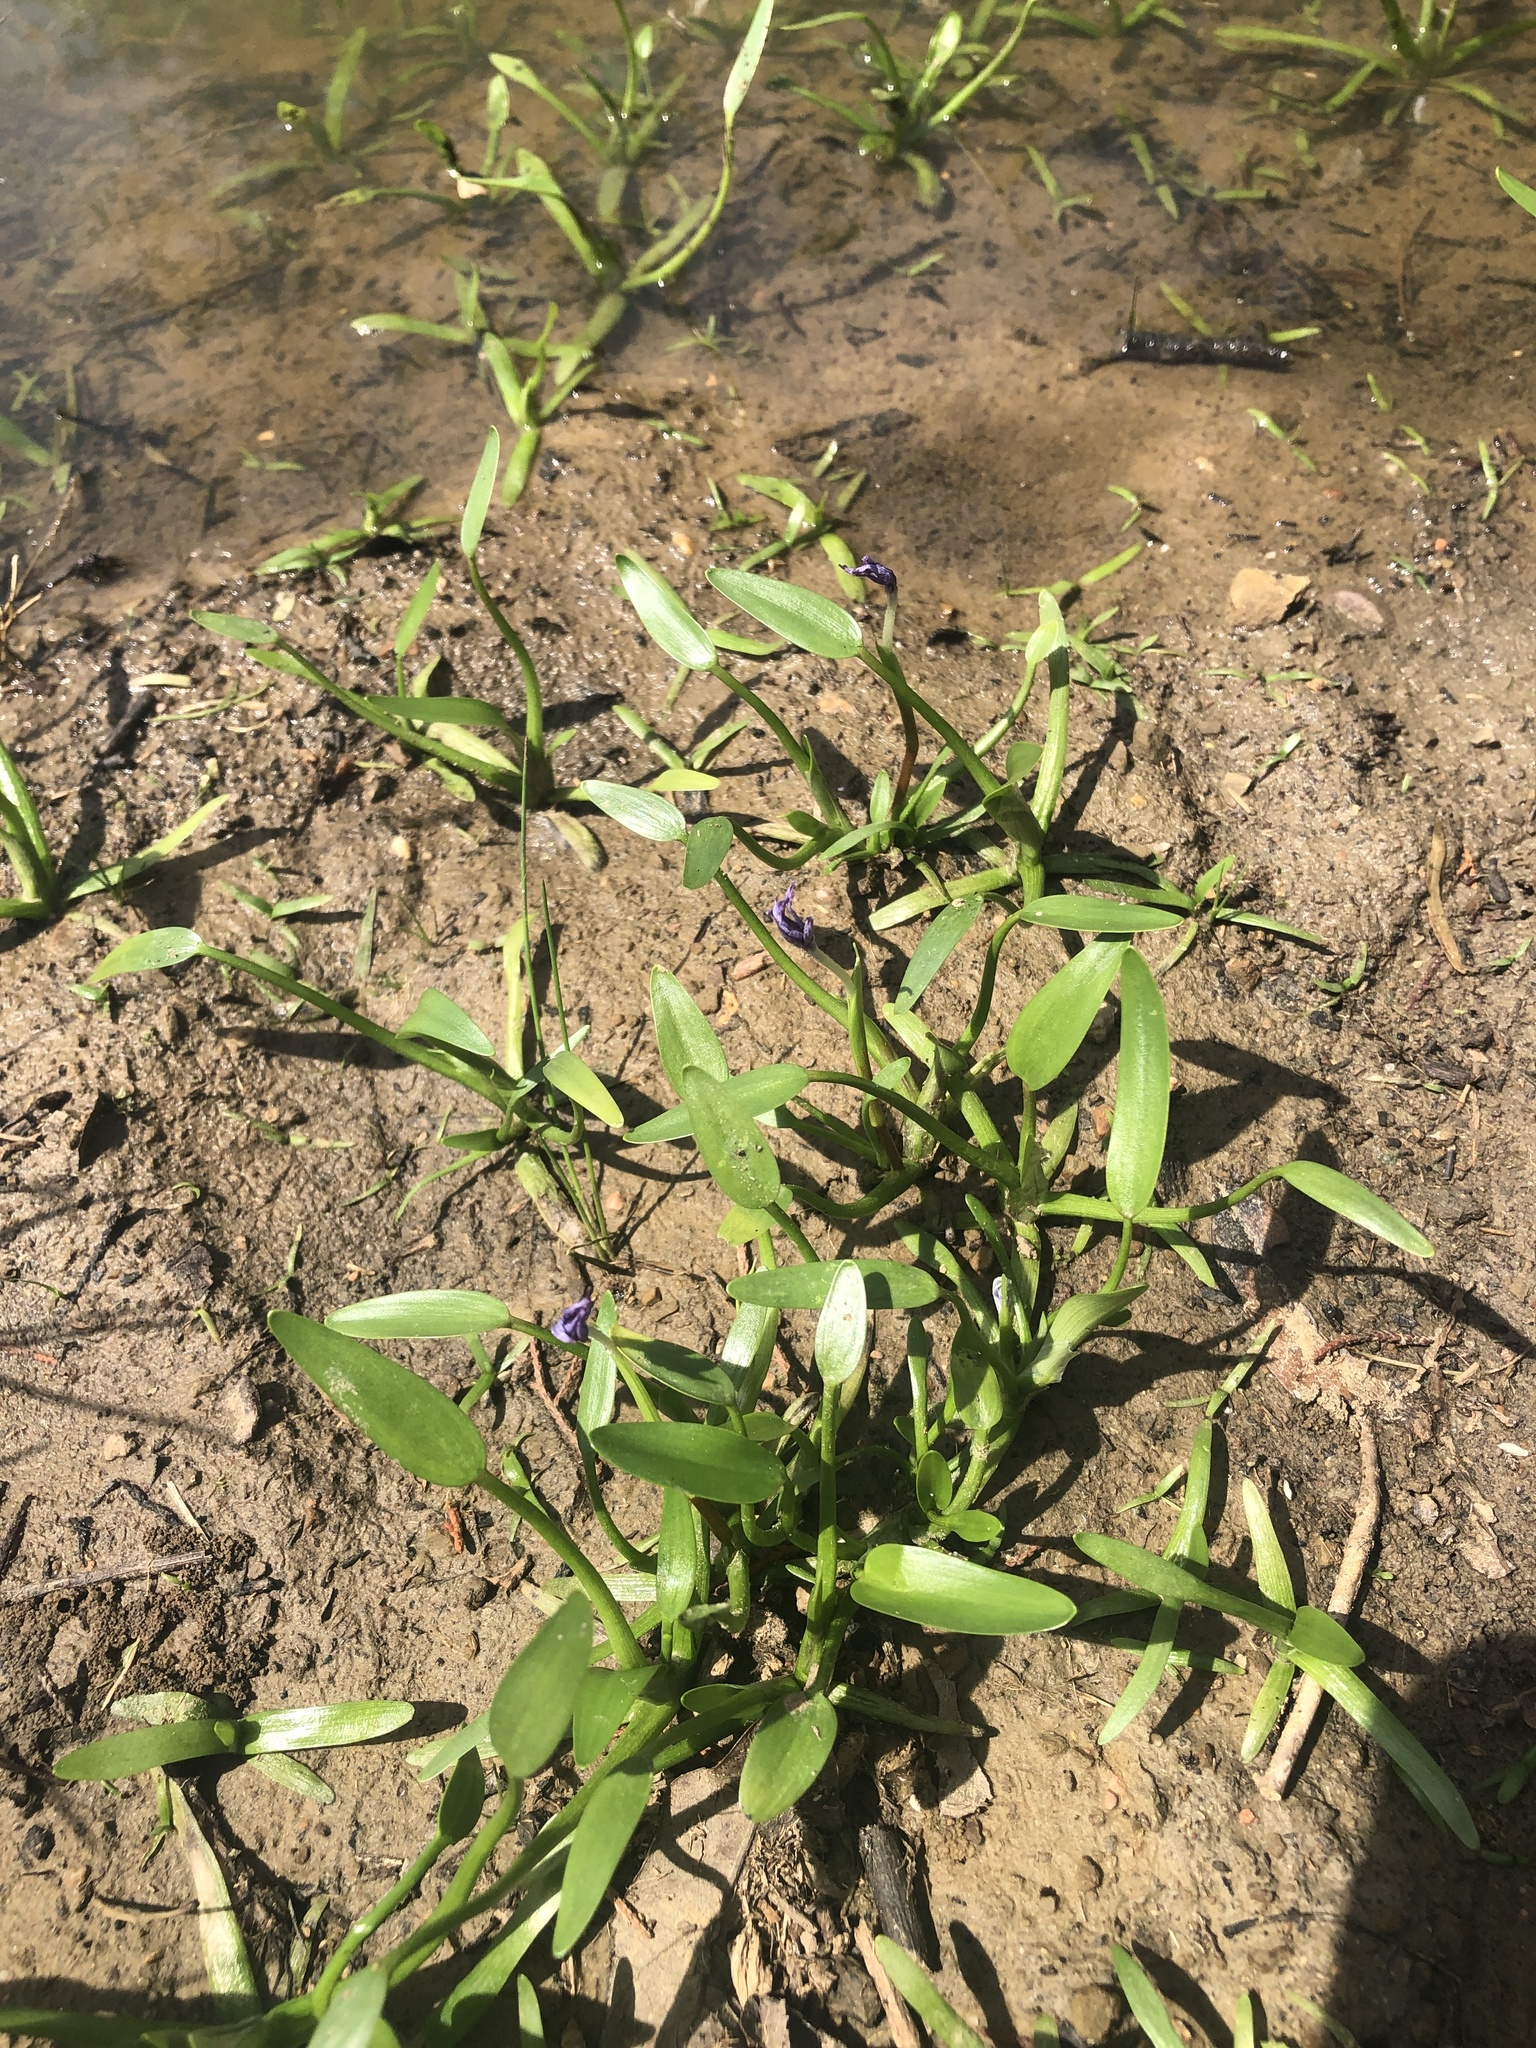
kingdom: Plantae
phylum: Tracheophyta
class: Liliopsida
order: Commelinales
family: Pontederiaceae
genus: Heteranthera
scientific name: Heteranthera limosa
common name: Blue mud-plantain
